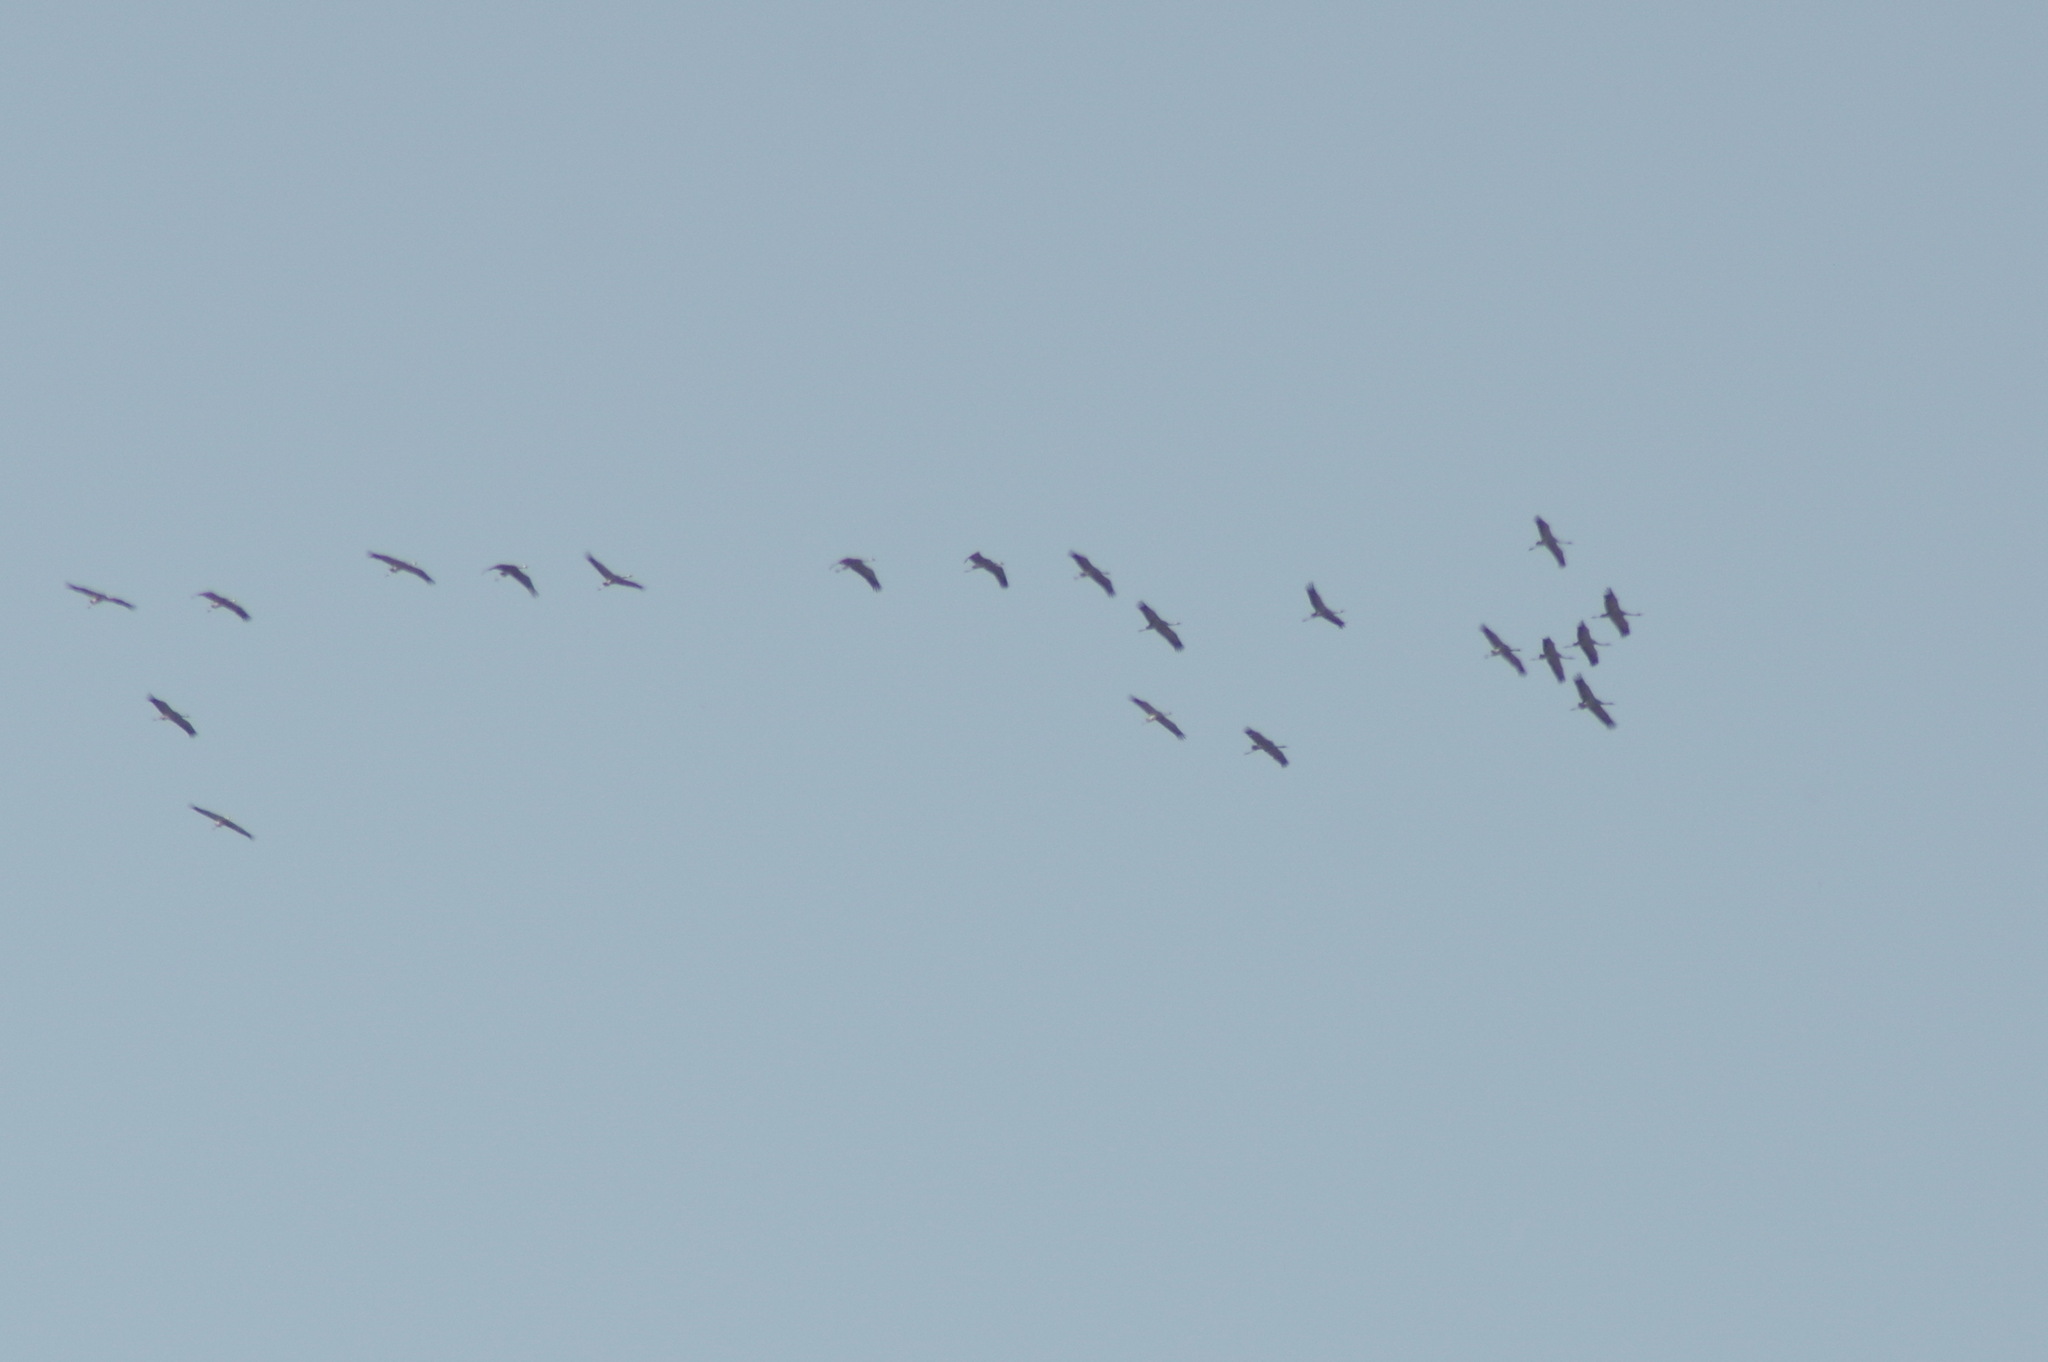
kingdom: Animalia
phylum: Chordata
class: Aves
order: Gruiformes
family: Gruidae
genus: Grus
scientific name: Grus grus
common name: Common crane
